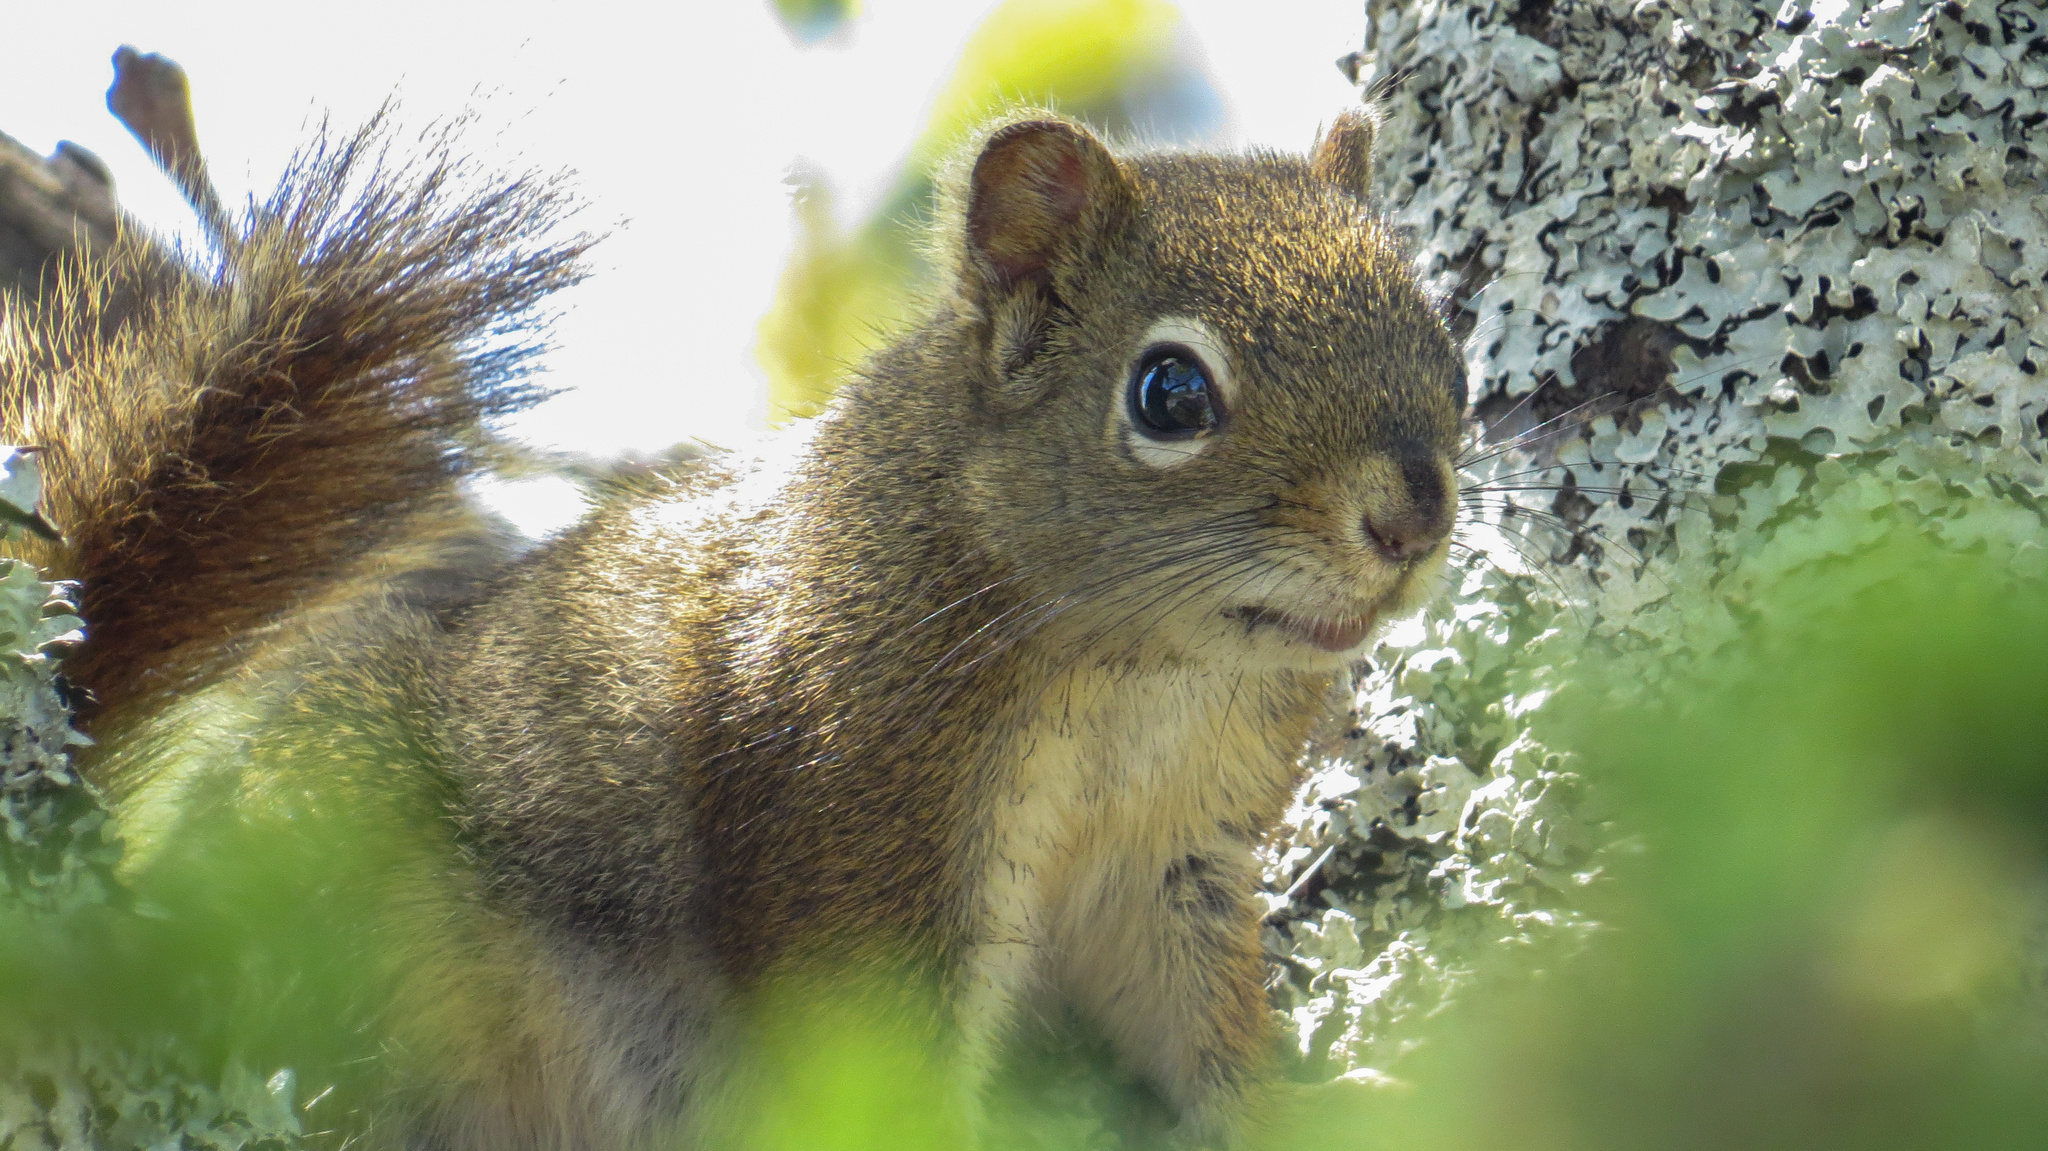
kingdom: Animalia
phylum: Chordata
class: Mammalia
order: Rodentia
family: Sciuridae
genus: Tamiasciurus
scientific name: Tamiasciurus hudsonicus
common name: Red squirrel
